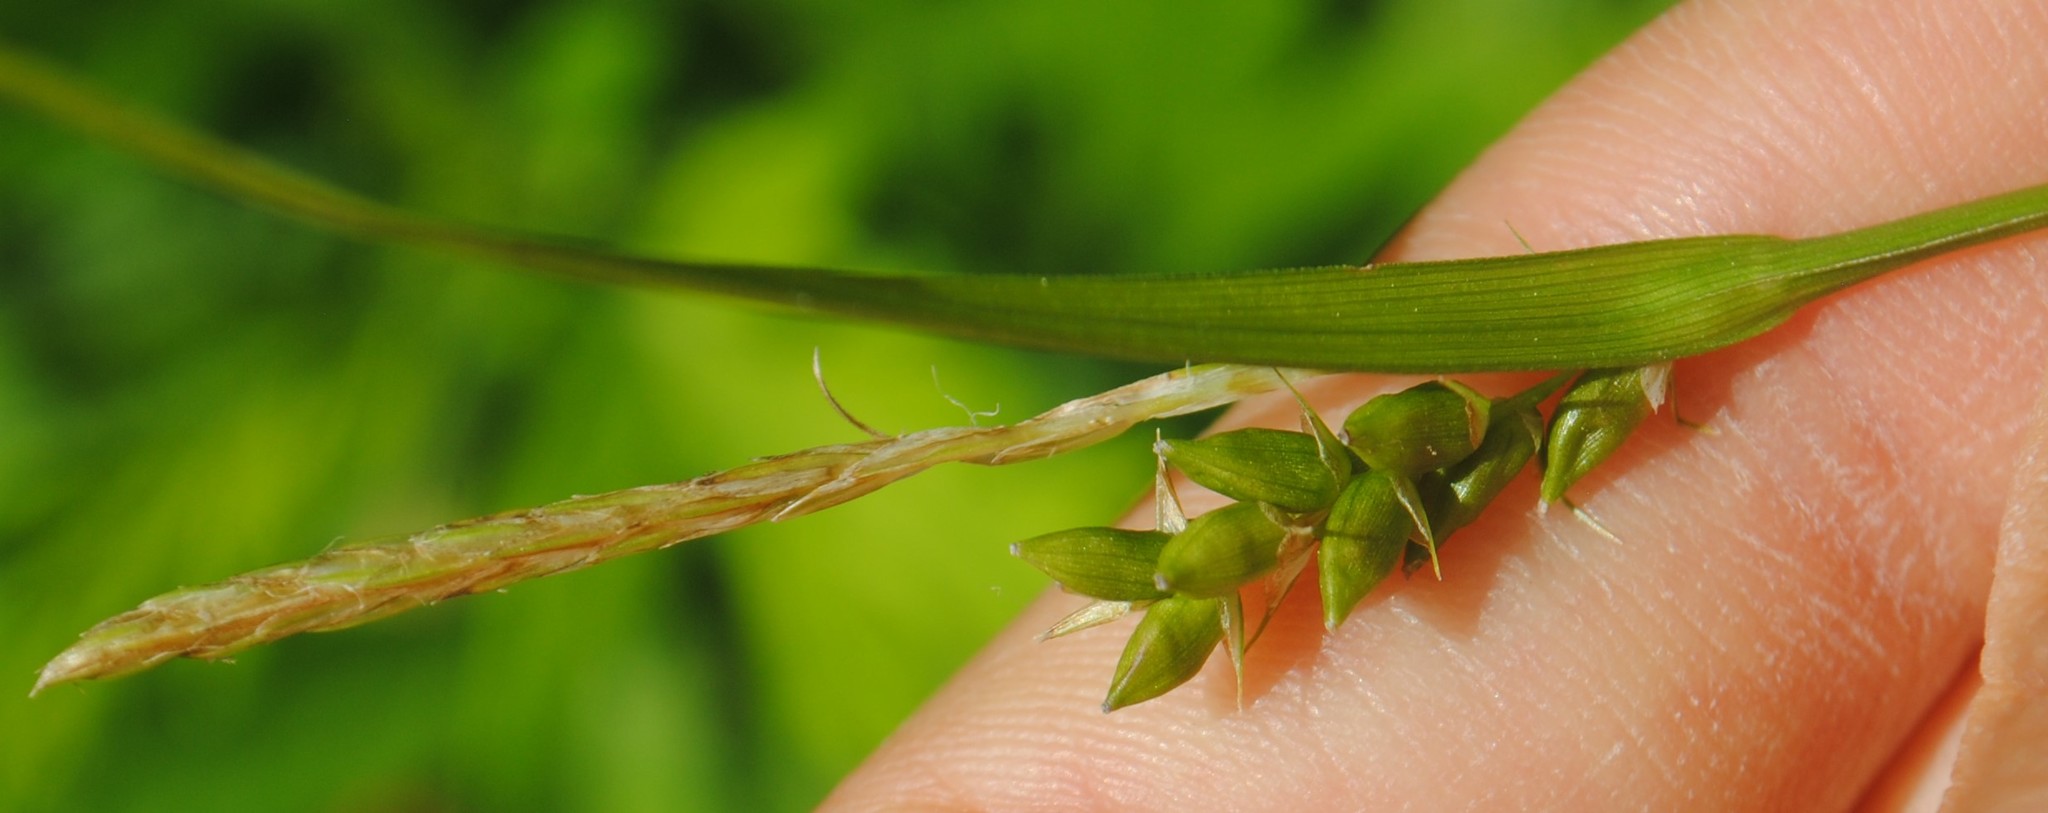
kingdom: Plantae
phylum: Tracheophyta
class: Liliopsida
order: Poales
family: Cyperaceae
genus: Carex
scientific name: Carex amphibola
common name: Amphibious sedge
